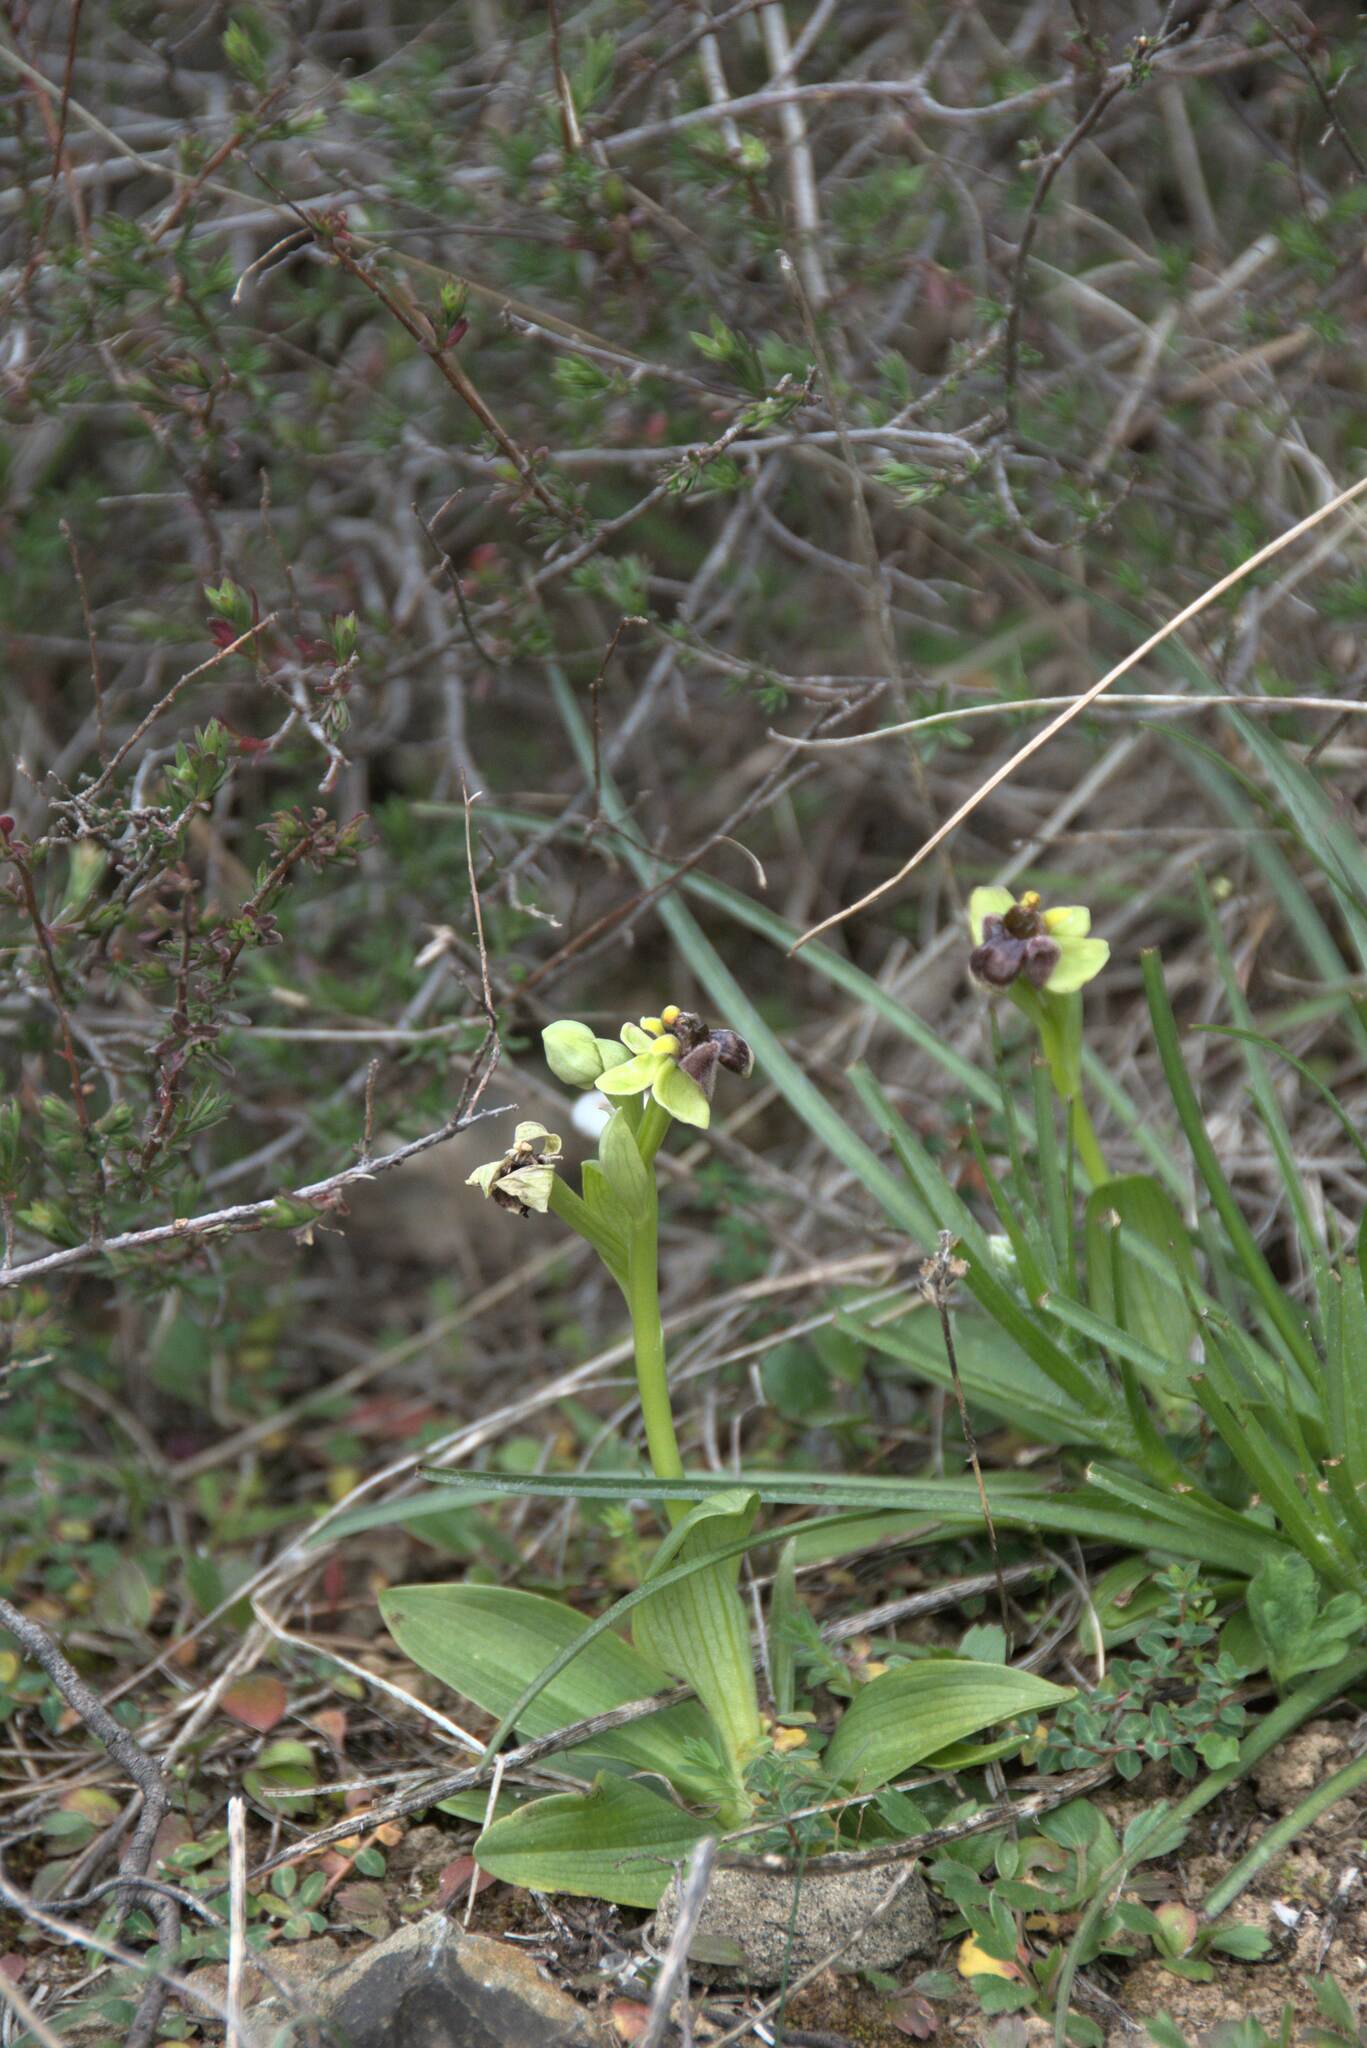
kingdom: Plantae
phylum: Tracheophyta
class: Liliopsida
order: Asparagales
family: Orchidaceae
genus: Ophrys
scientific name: Ophrys bombyliflora
